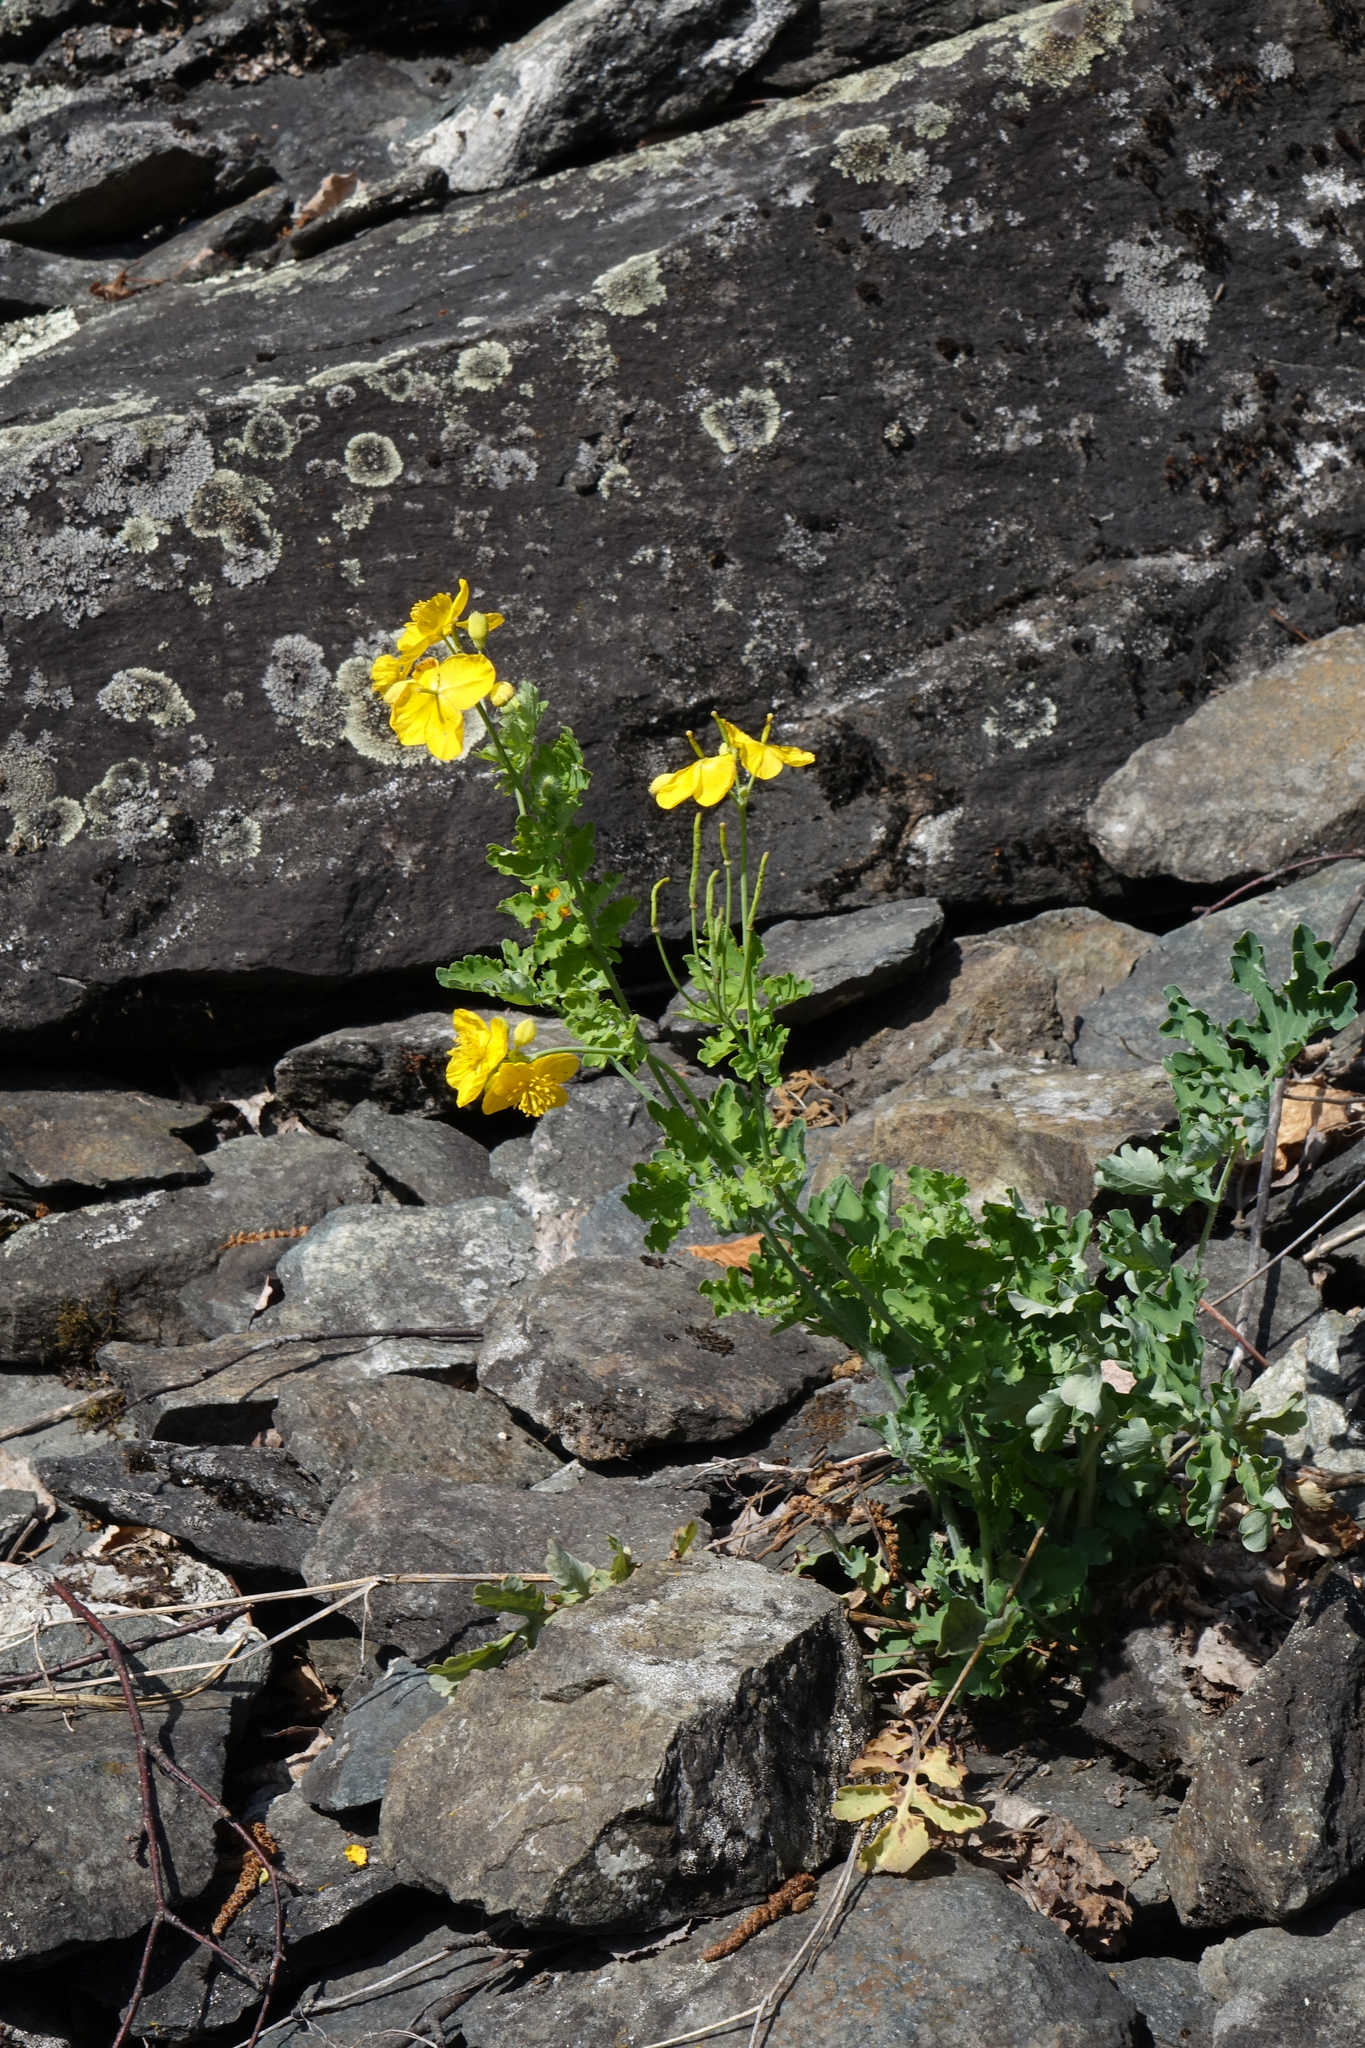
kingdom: Plantae
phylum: Tracheophyta
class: Magnoliopsida
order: Ranunculales
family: Papaveraceae
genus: Chelidonium
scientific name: Chelidonium majus
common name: Greater celandine
